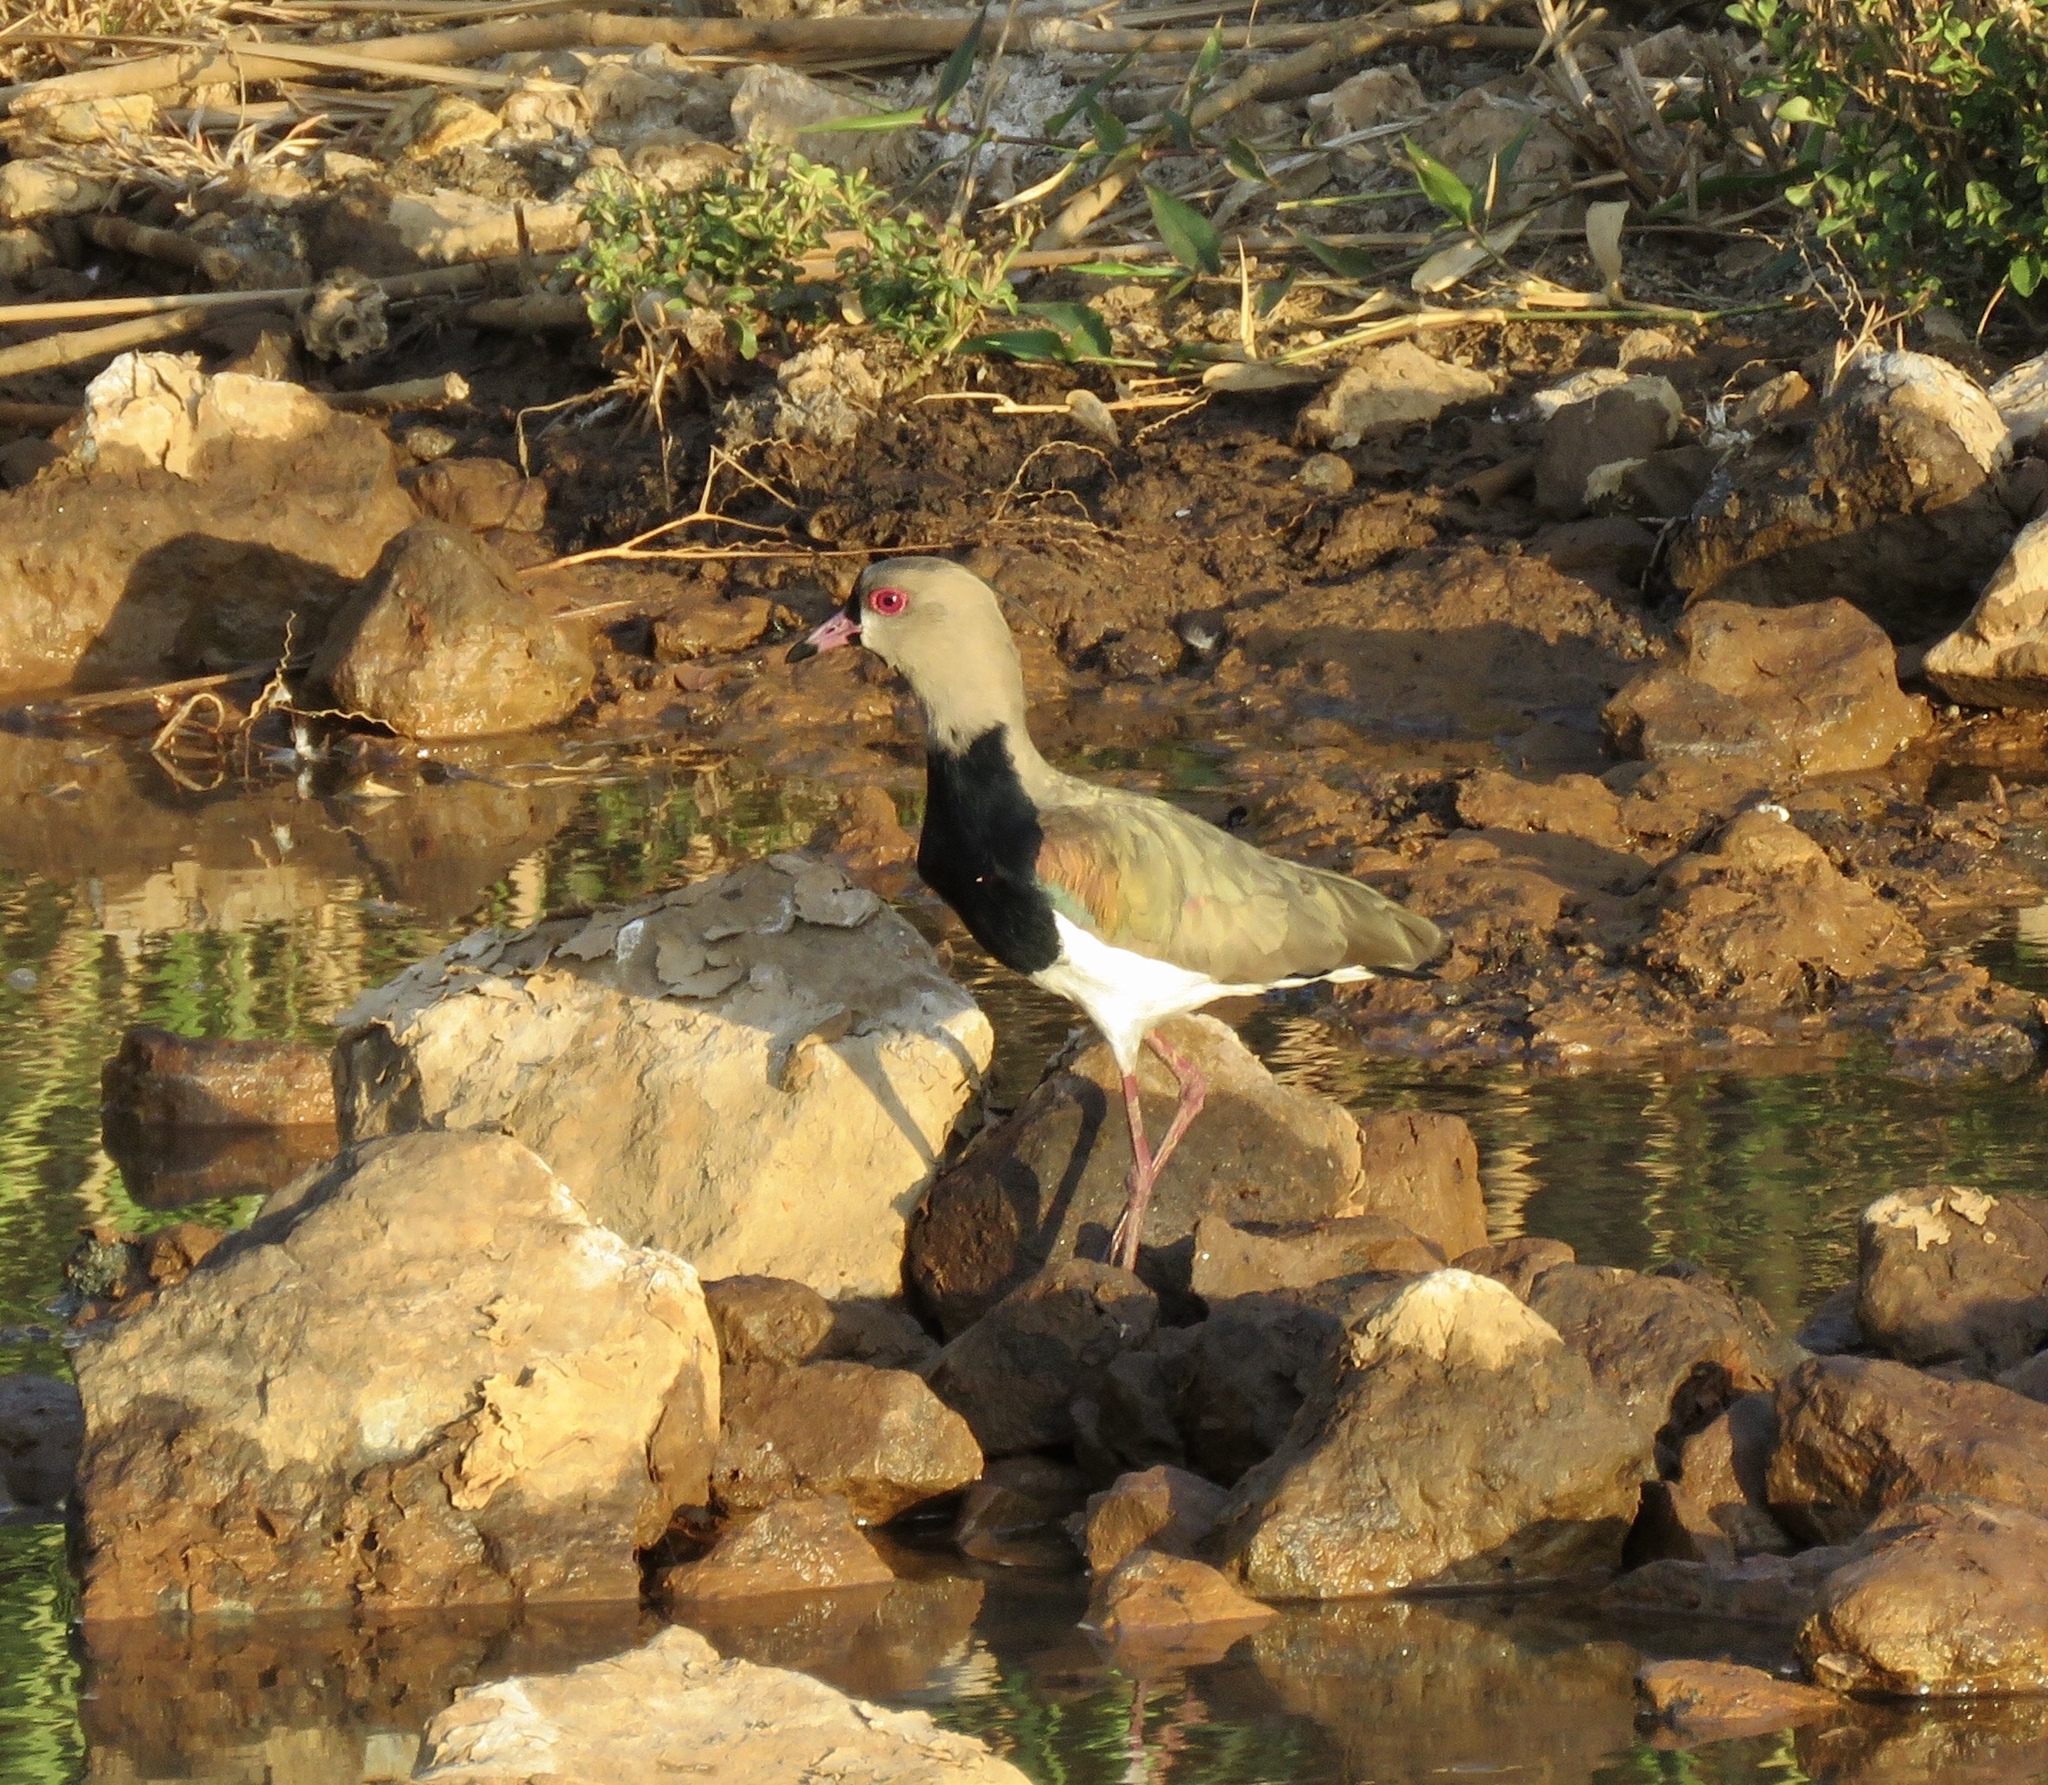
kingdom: Animalia
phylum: Chordata
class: Aves
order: Charadriiformes
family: Charadriidae
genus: Vanellus
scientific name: Vanellus chilensis
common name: Southern lapwing
